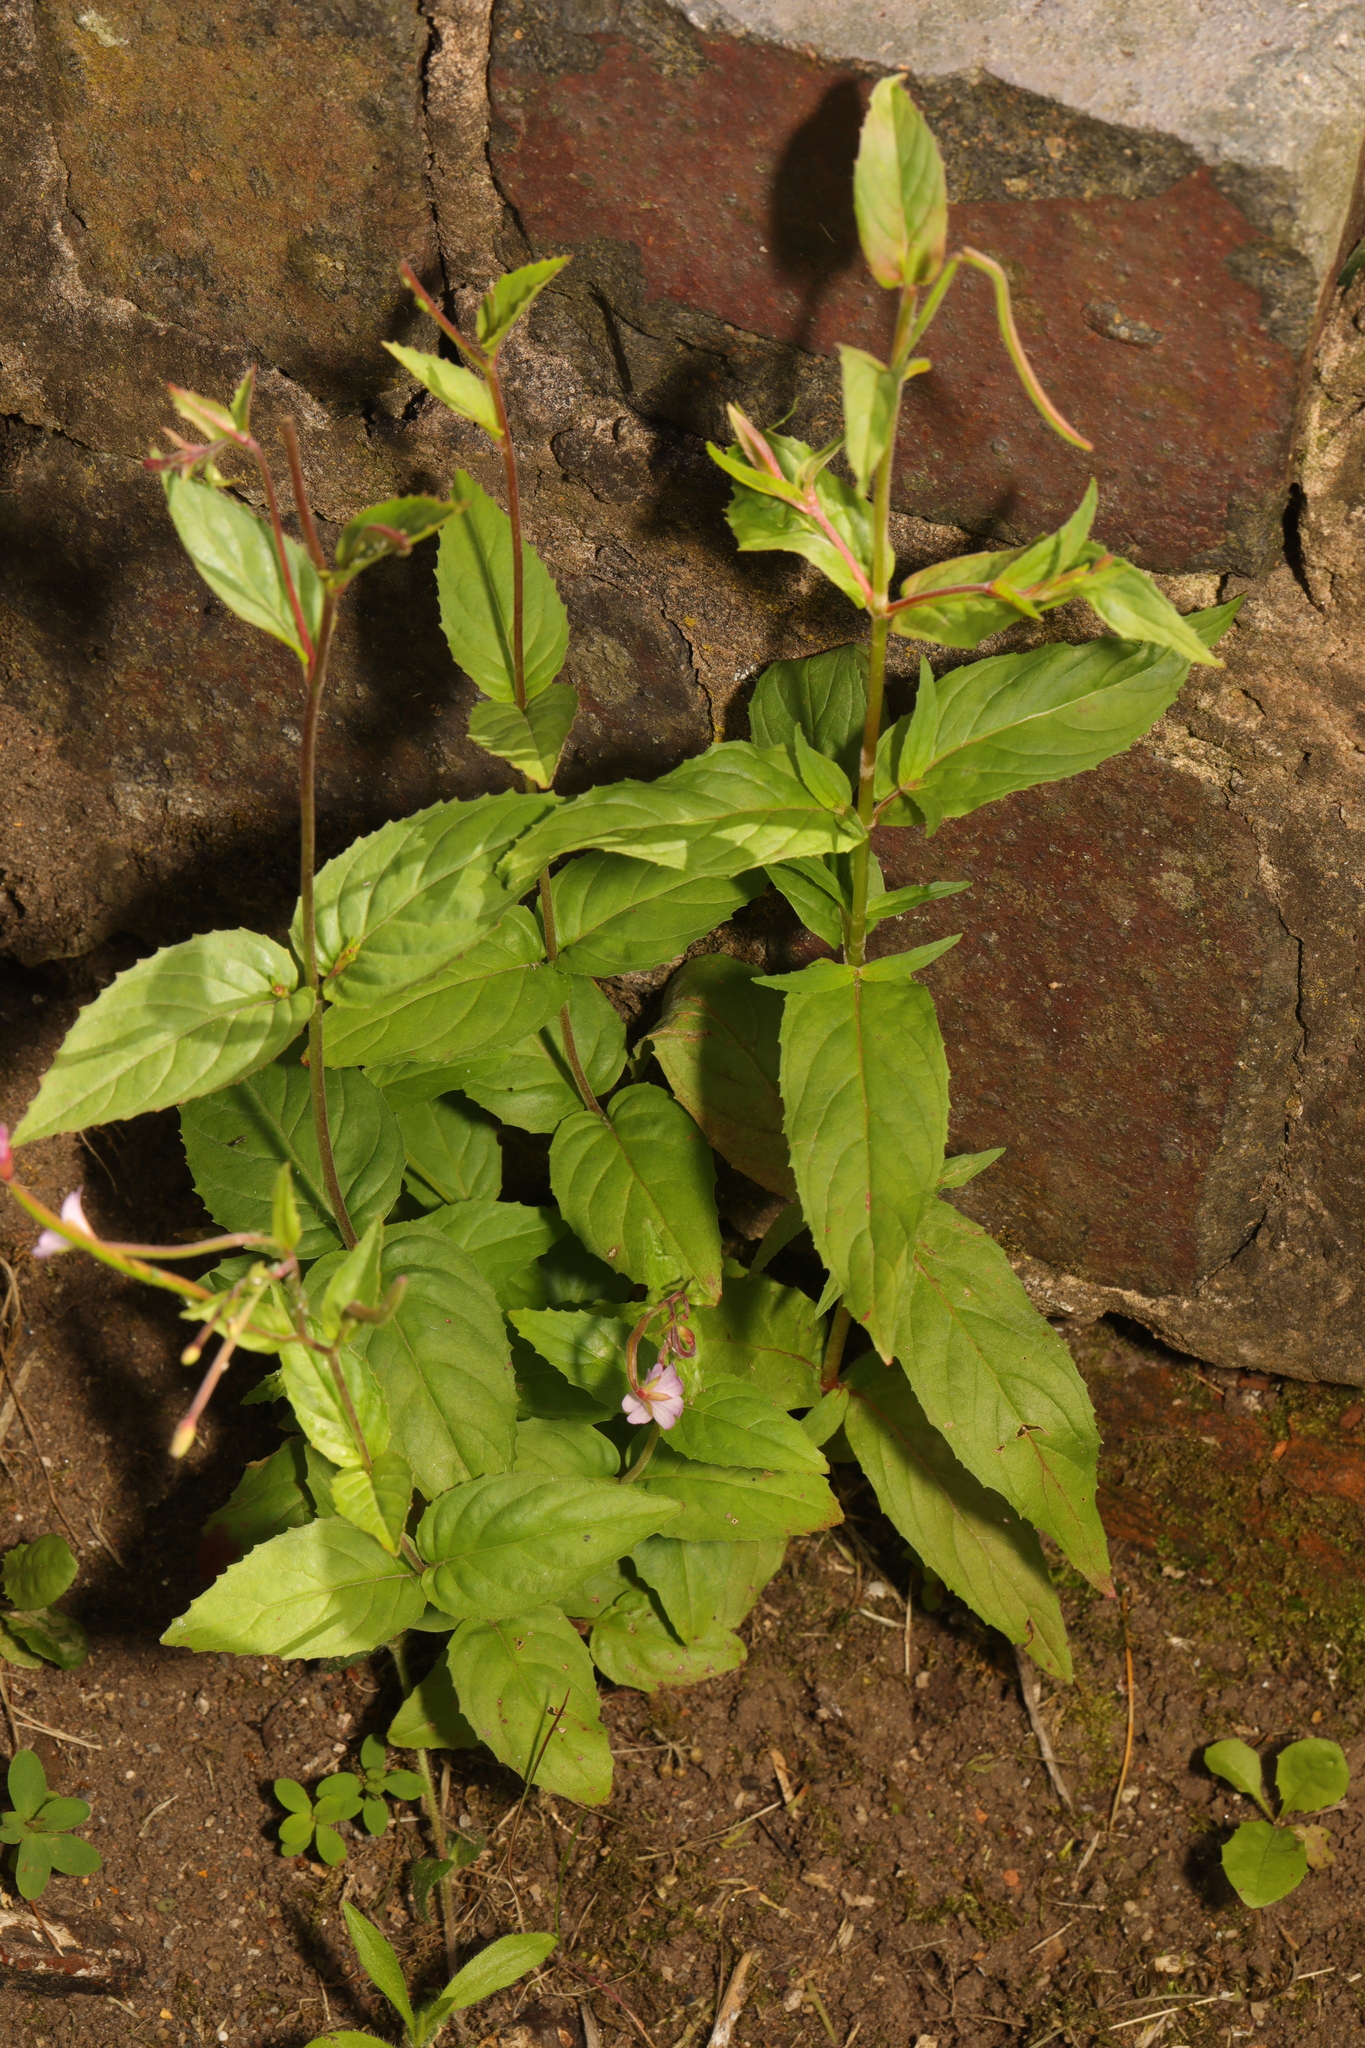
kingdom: Plantae
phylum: Tracheophyta
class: Magnoliopsida
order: Myrtales
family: Onagraceae
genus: Epilobium
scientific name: Epilobium montanum
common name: Broad-leaved willowherb
